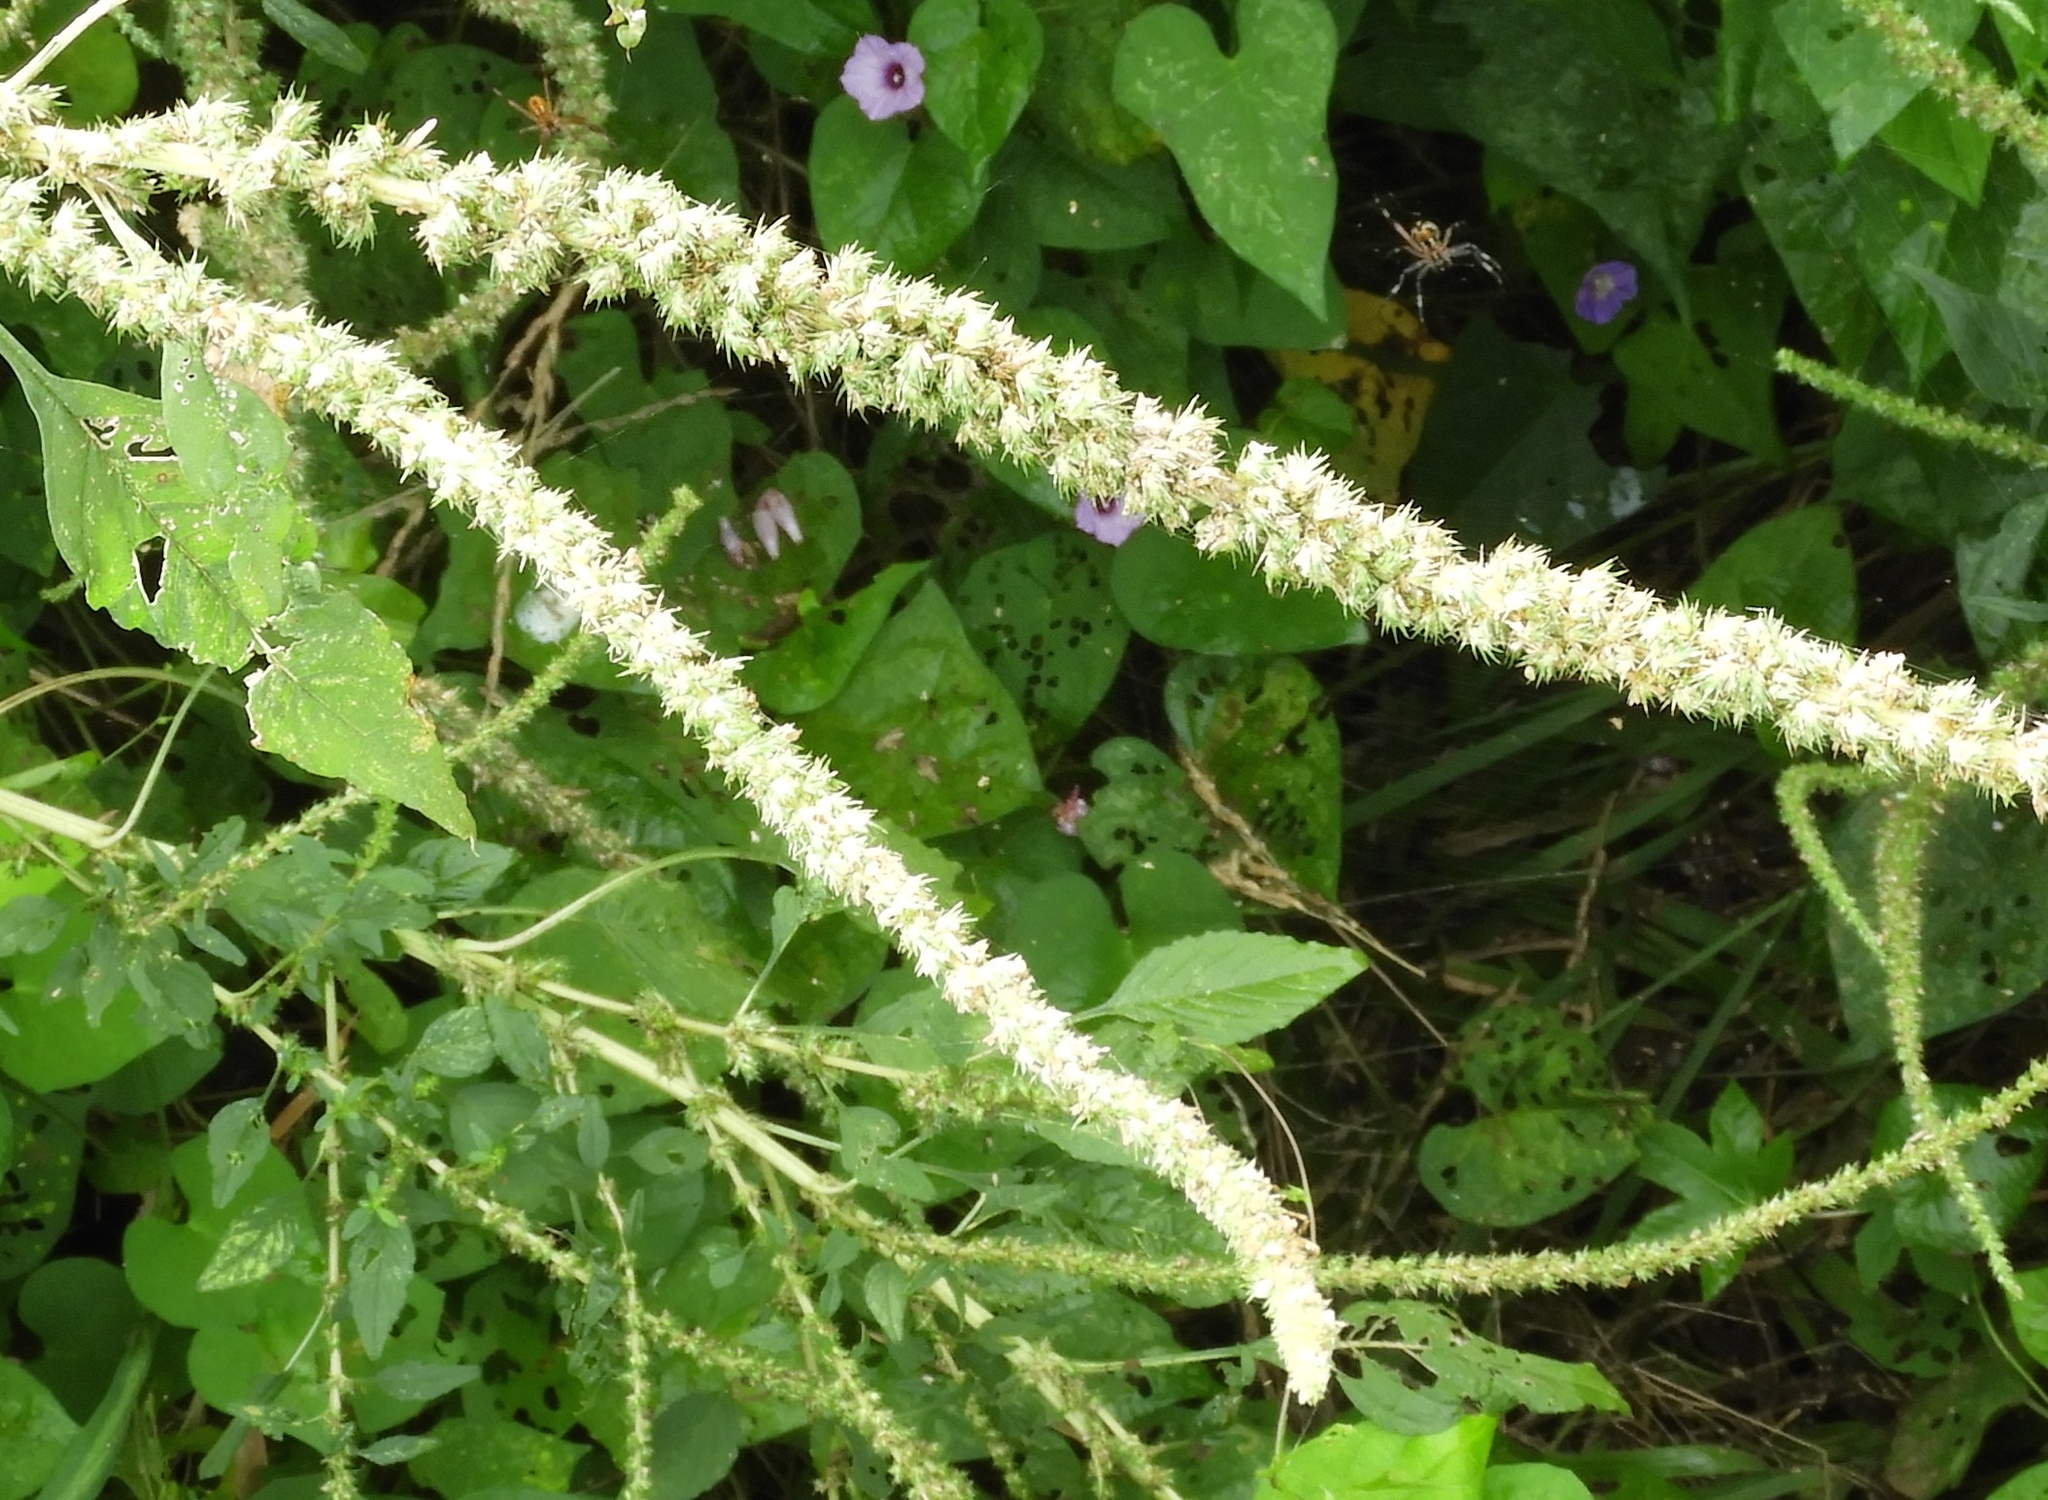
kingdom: Plantae
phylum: Tracheophyta
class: Magnoliopsida
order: Caryophyllales
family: Amaranthaceae
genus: Amaranthus
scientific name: Amaranthus
